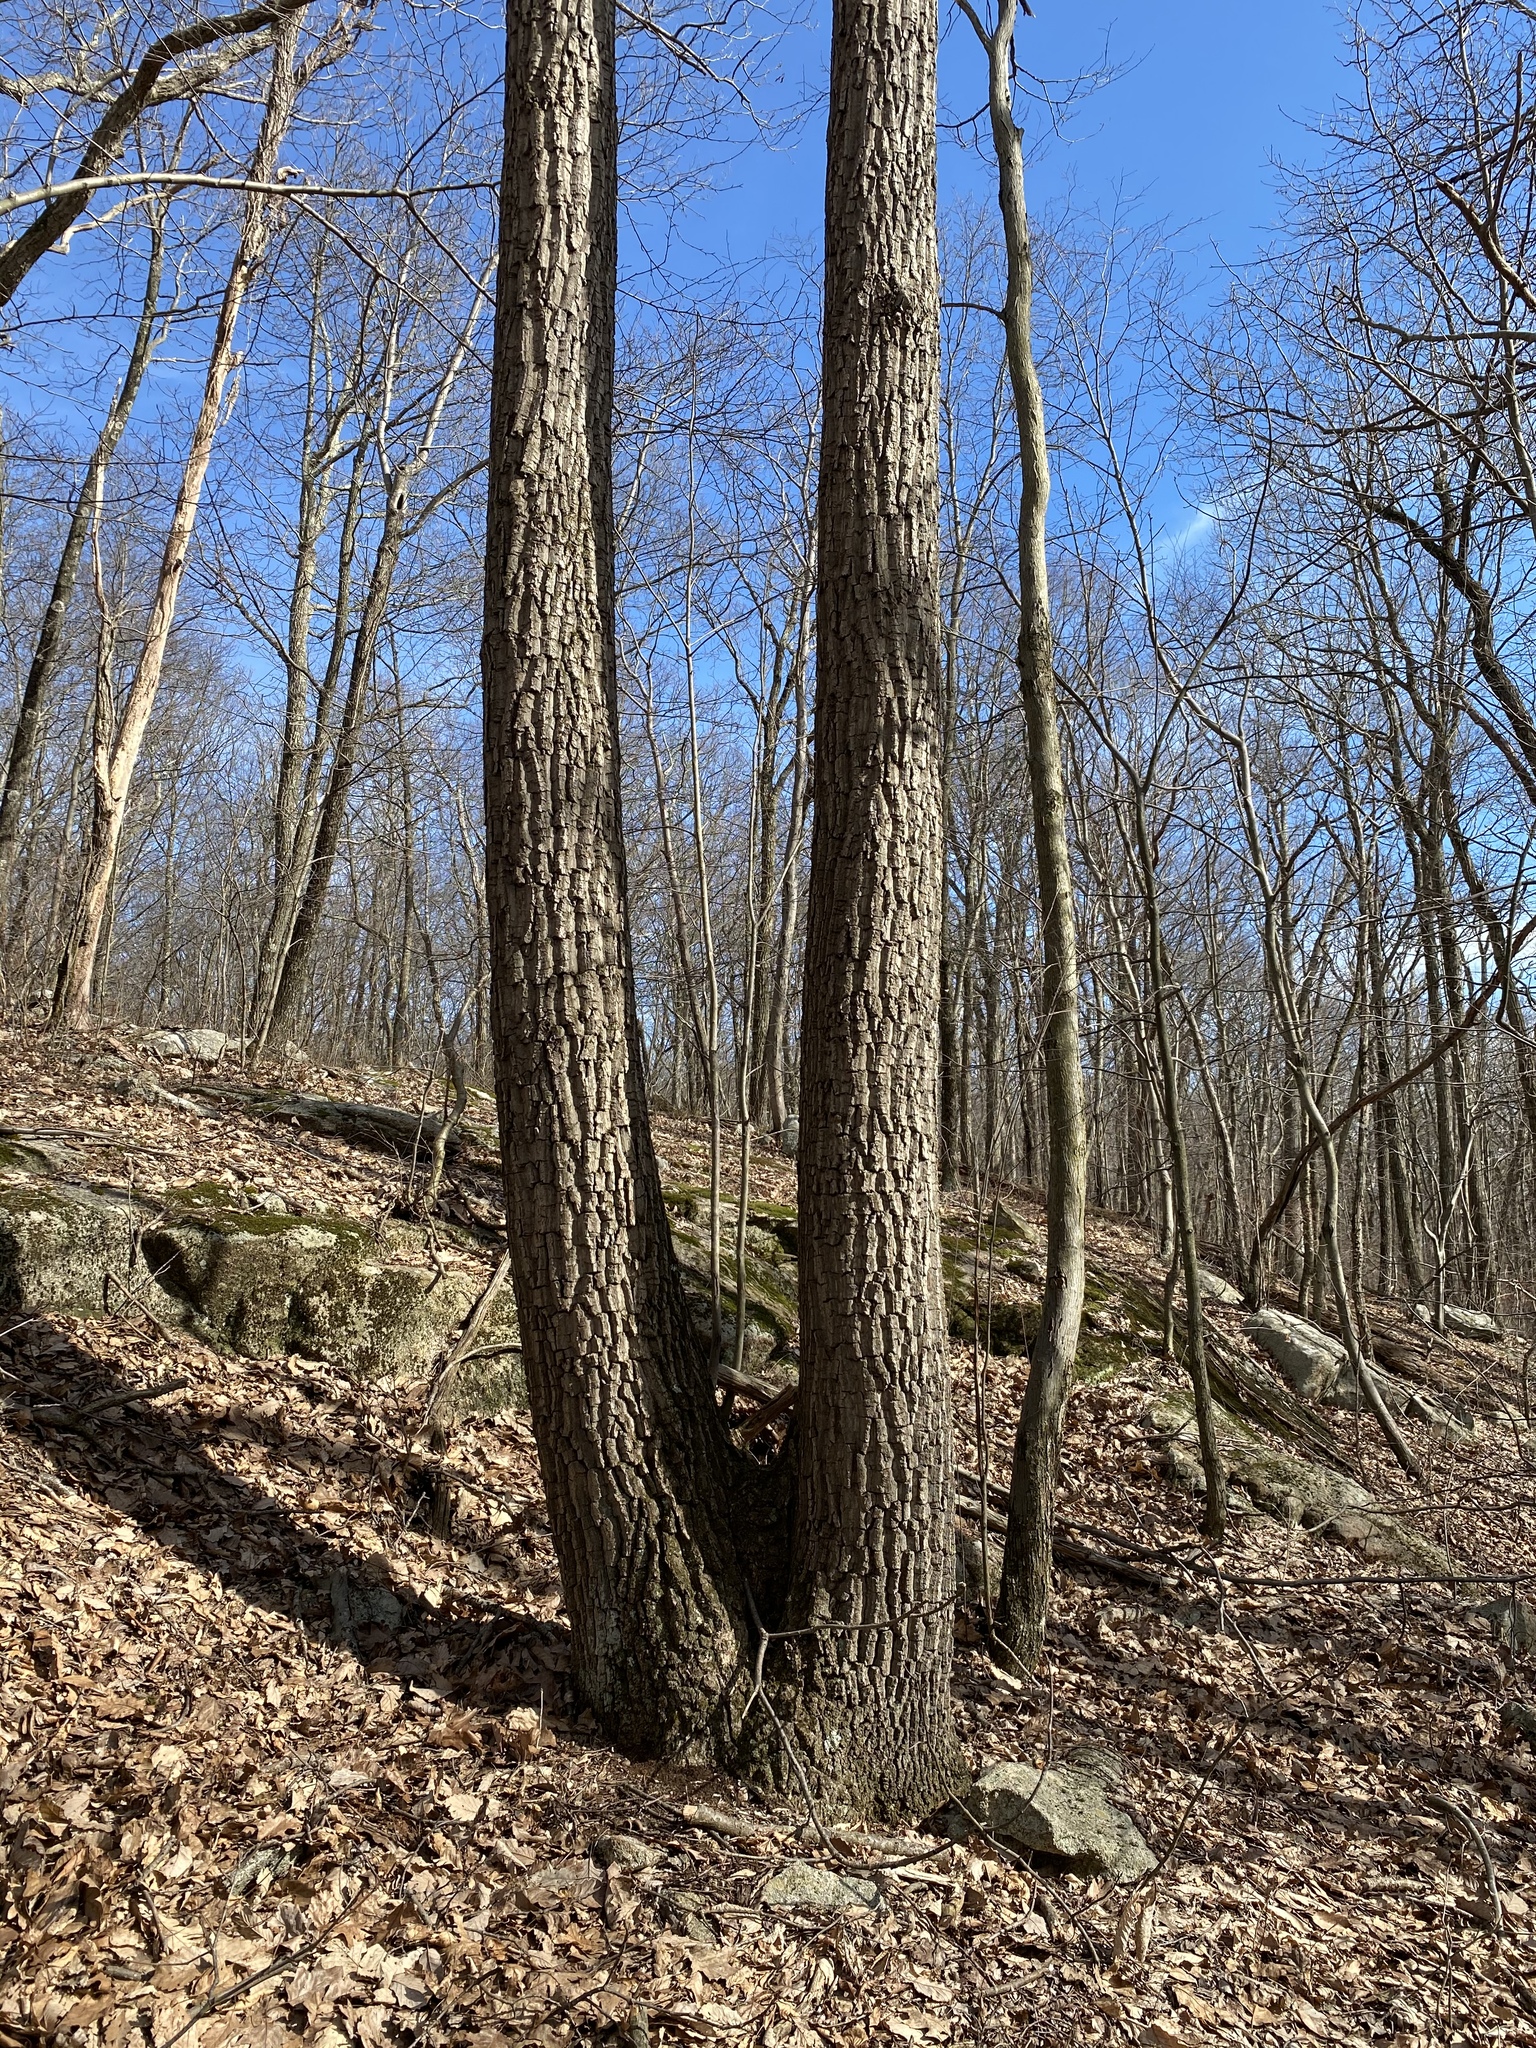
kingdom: Plantae
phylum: Tracheophyta
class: Magnoliopsida
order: Fagales
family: Fagaceae
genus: Quercus
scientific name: Quercus montana
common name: Chestnut oak
